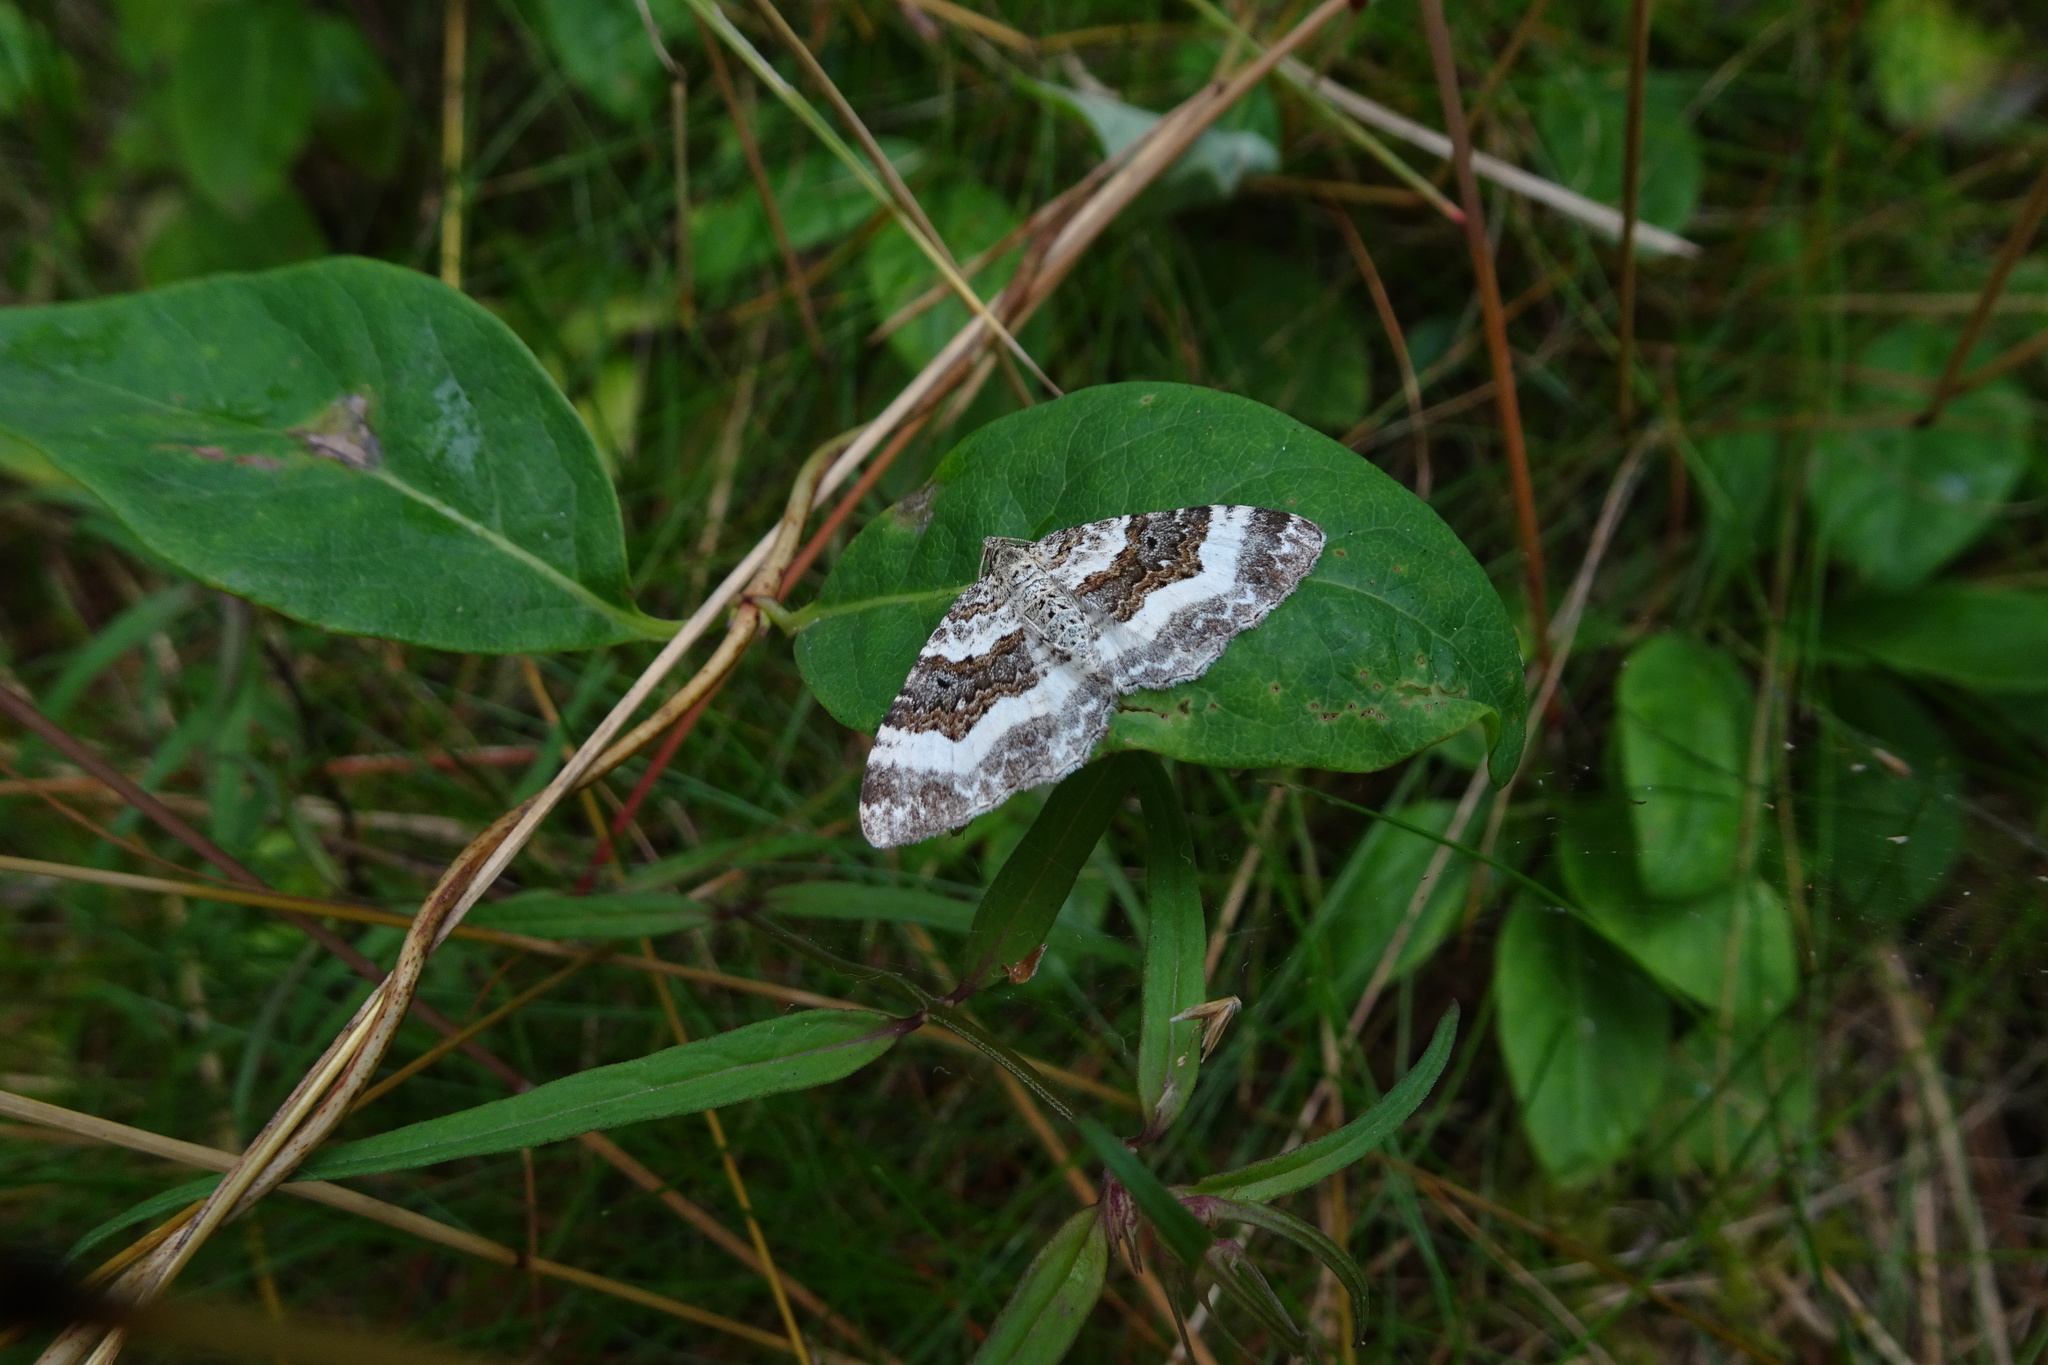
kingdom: Animalia
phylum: Arthropoda
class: Insecta
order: Lepidoptera
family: Geometridae
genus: Epirrhoe
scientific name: Epirrhoe rivata
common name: Wood carpet
